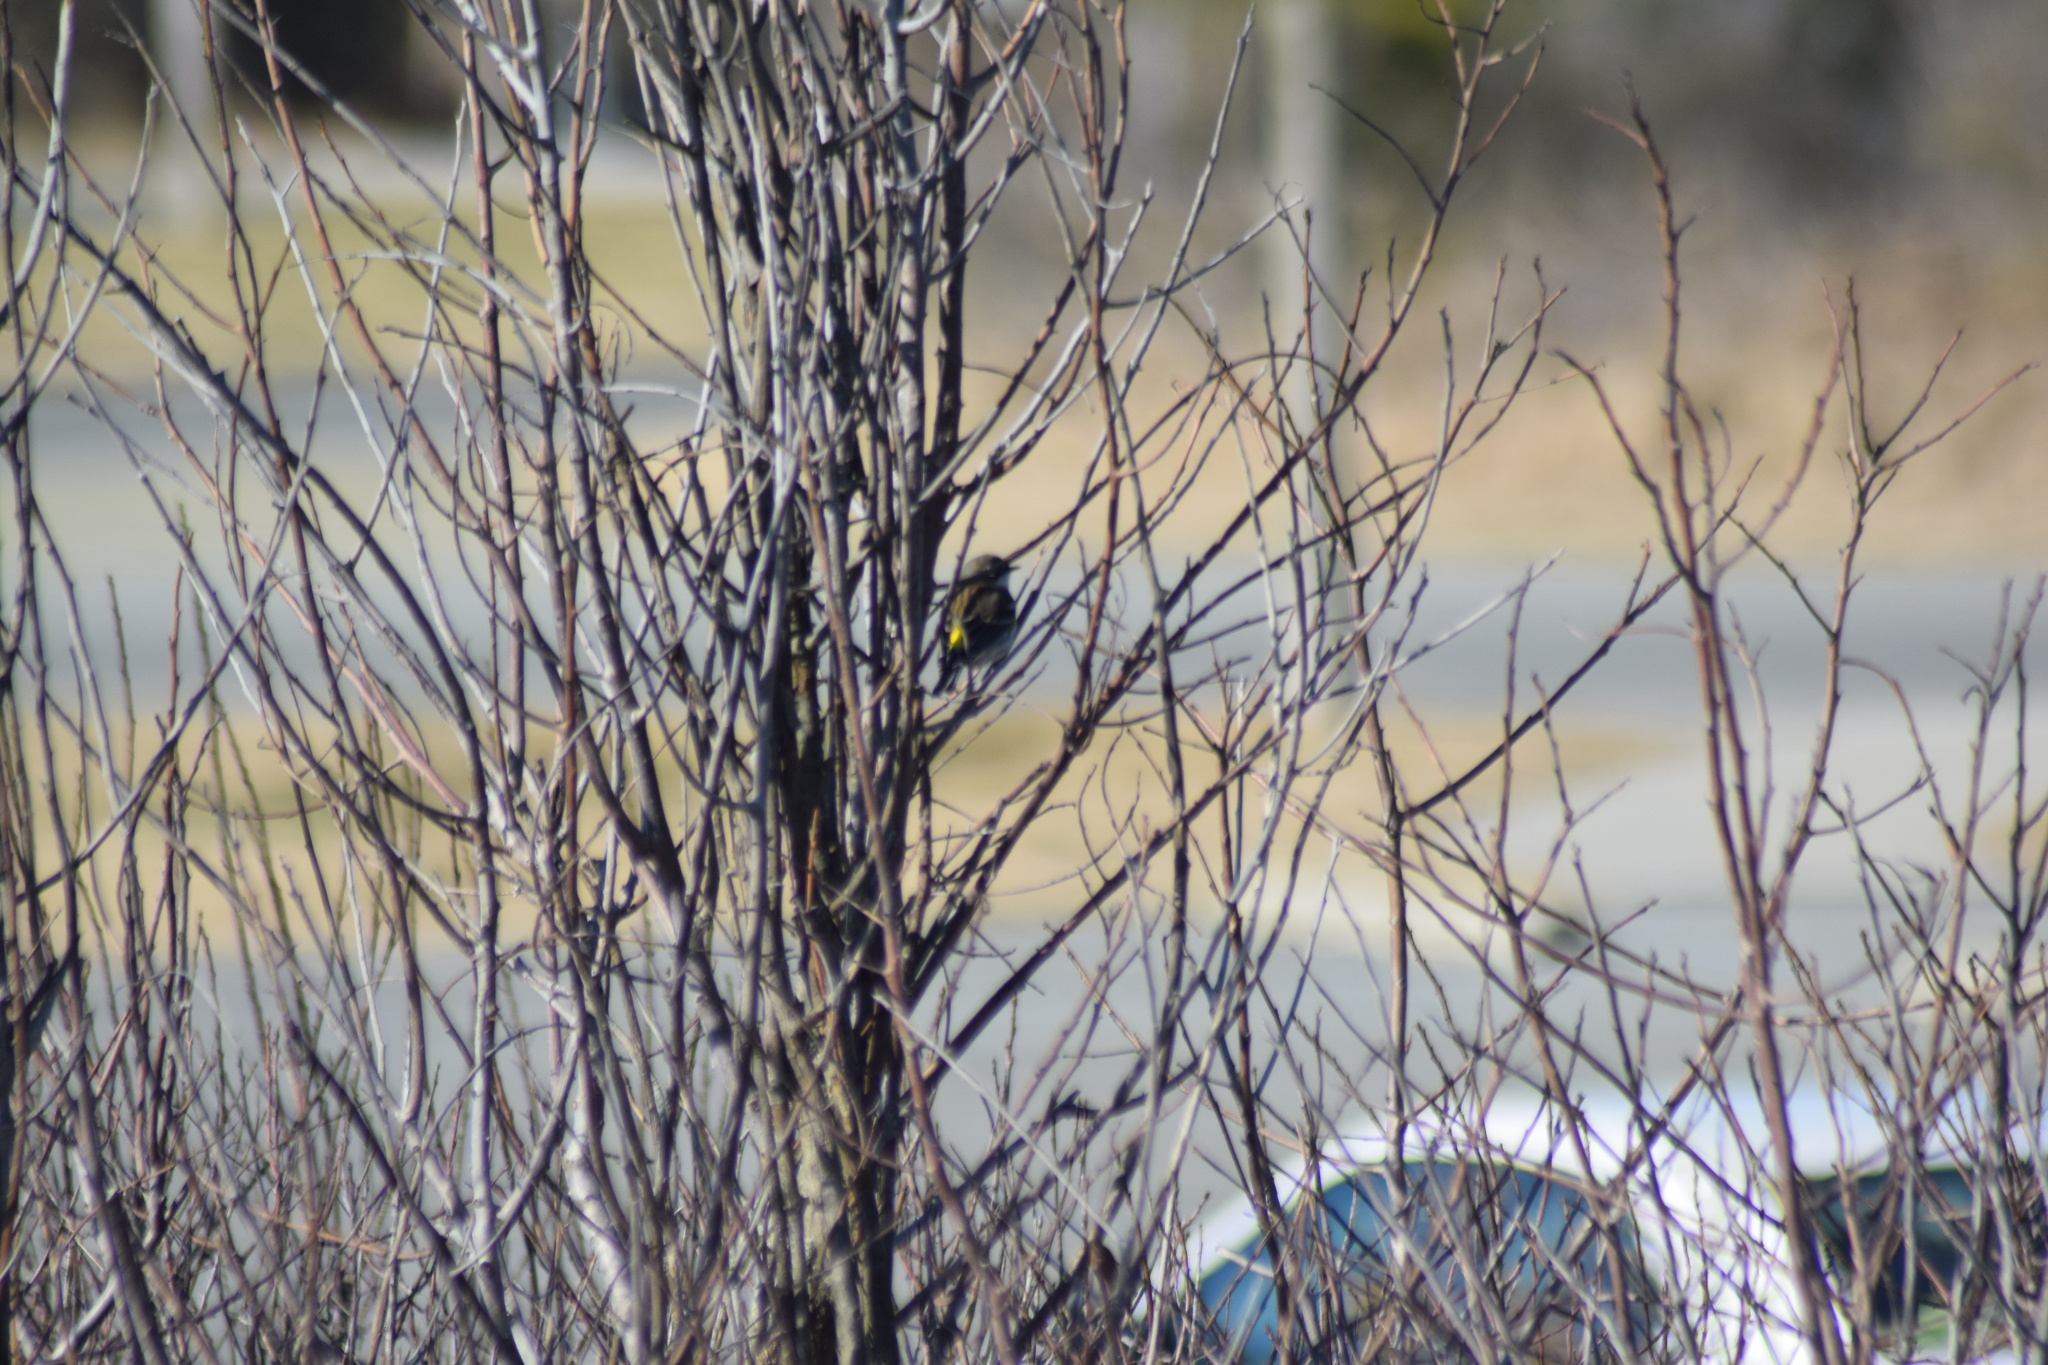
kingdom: Animalia
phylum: Chordata
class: Aves
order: Passeriformes
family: Parulidae
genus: Setophaga
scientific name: Setophaga coronata
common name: Myrtle warbler
